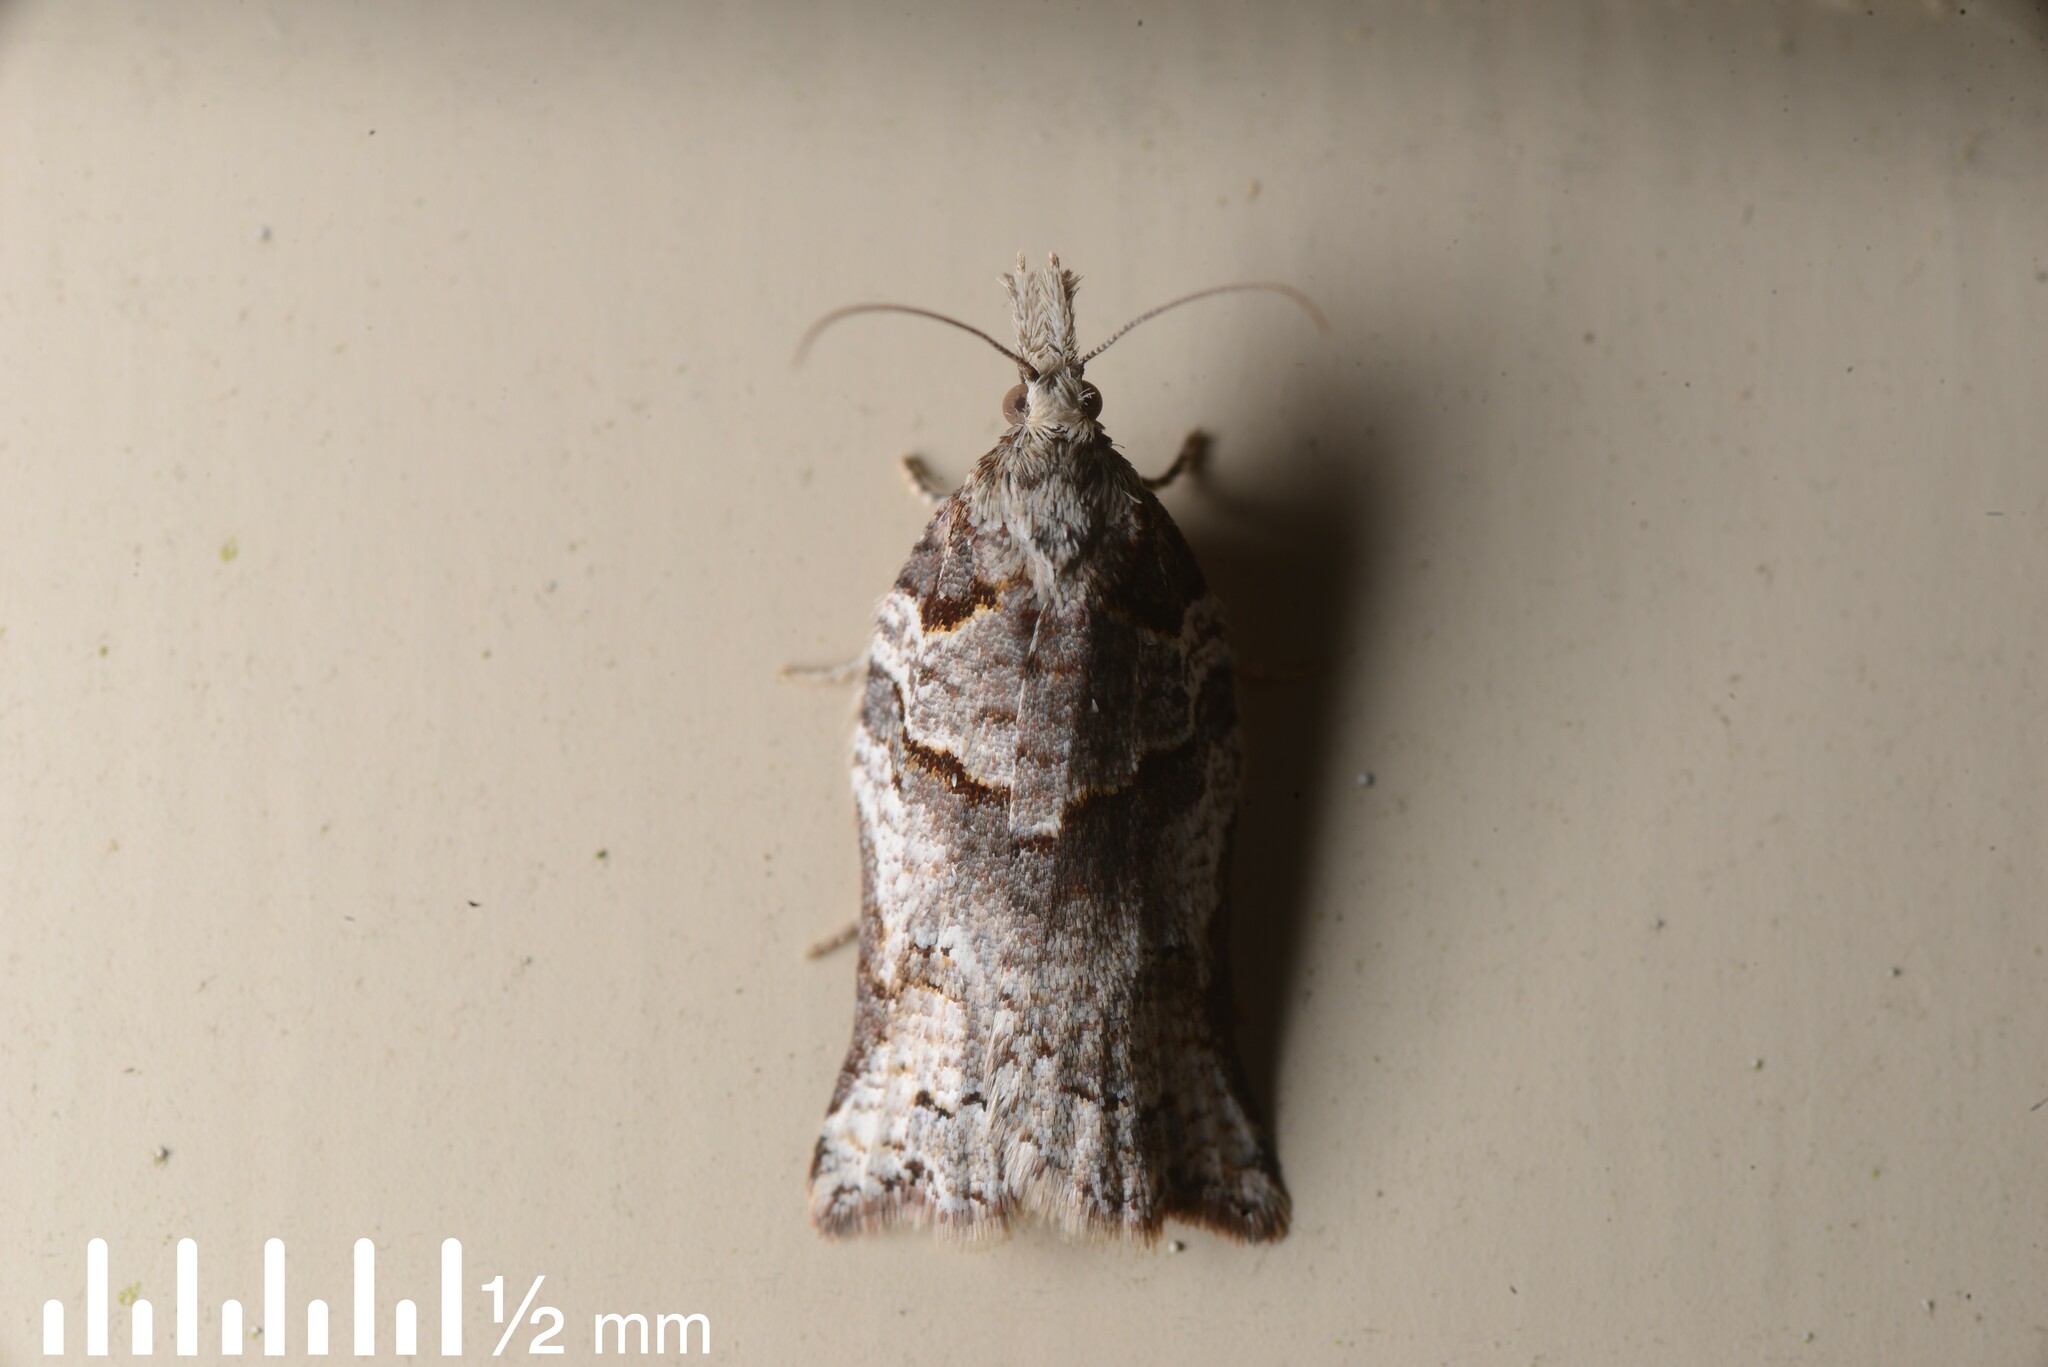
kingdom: Animalia
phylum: Arthropoda
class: Insecta
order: Lepidoptera
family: Tortricidae
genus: Harmologa
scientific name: Harmologa amplexana
